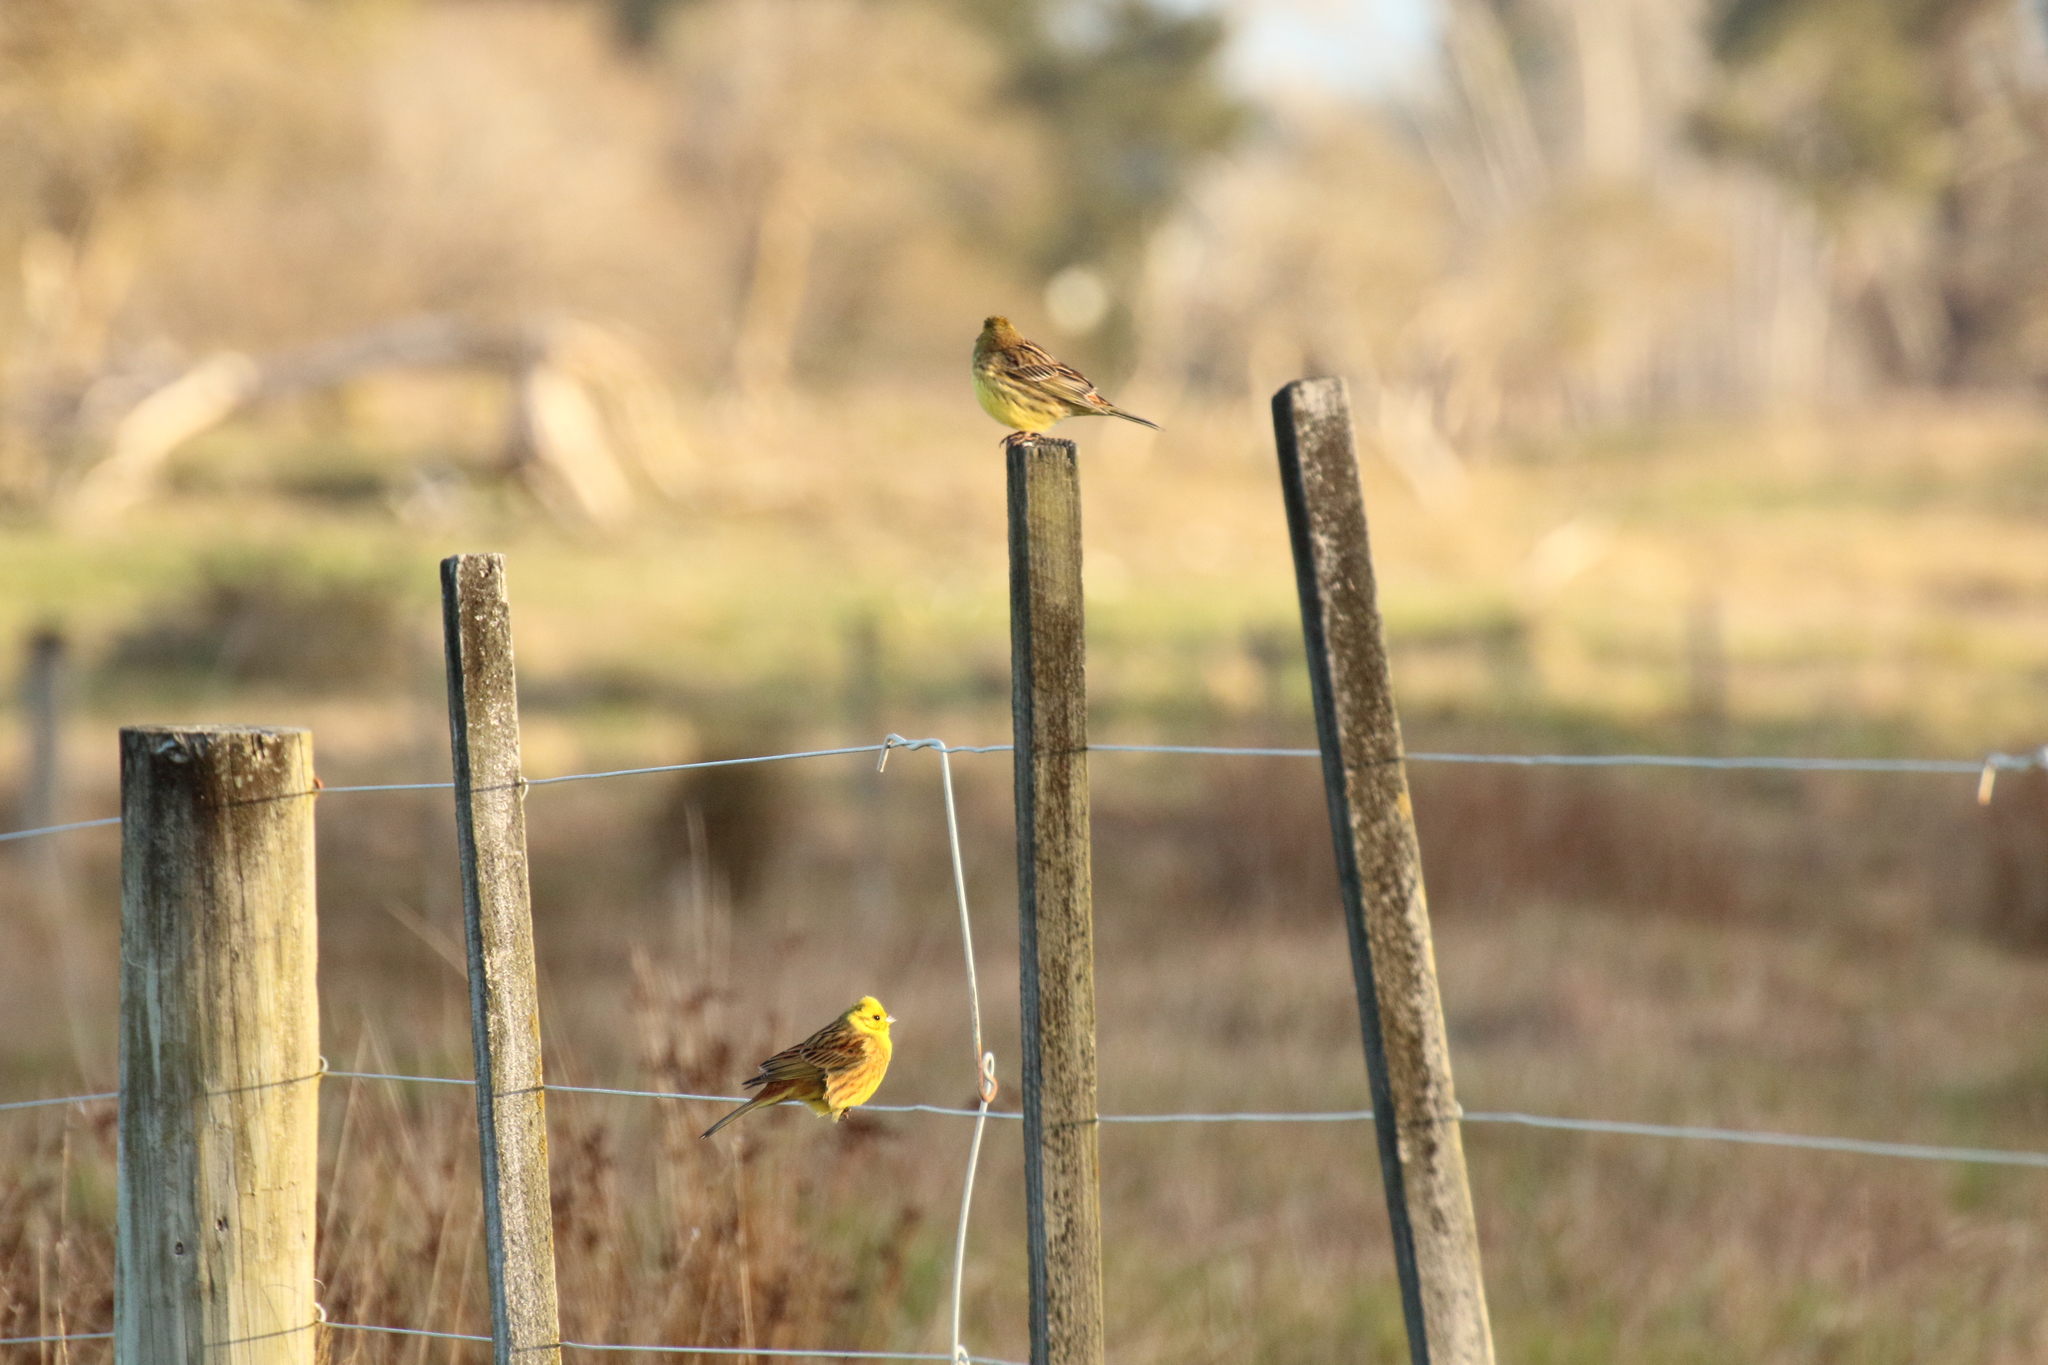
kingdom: Animalia
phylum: Chordata
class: Aves
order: Passeriformes
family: Emberizidae
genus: Emberiza
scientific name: Emberiza citrinella
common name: Yellowhammer
